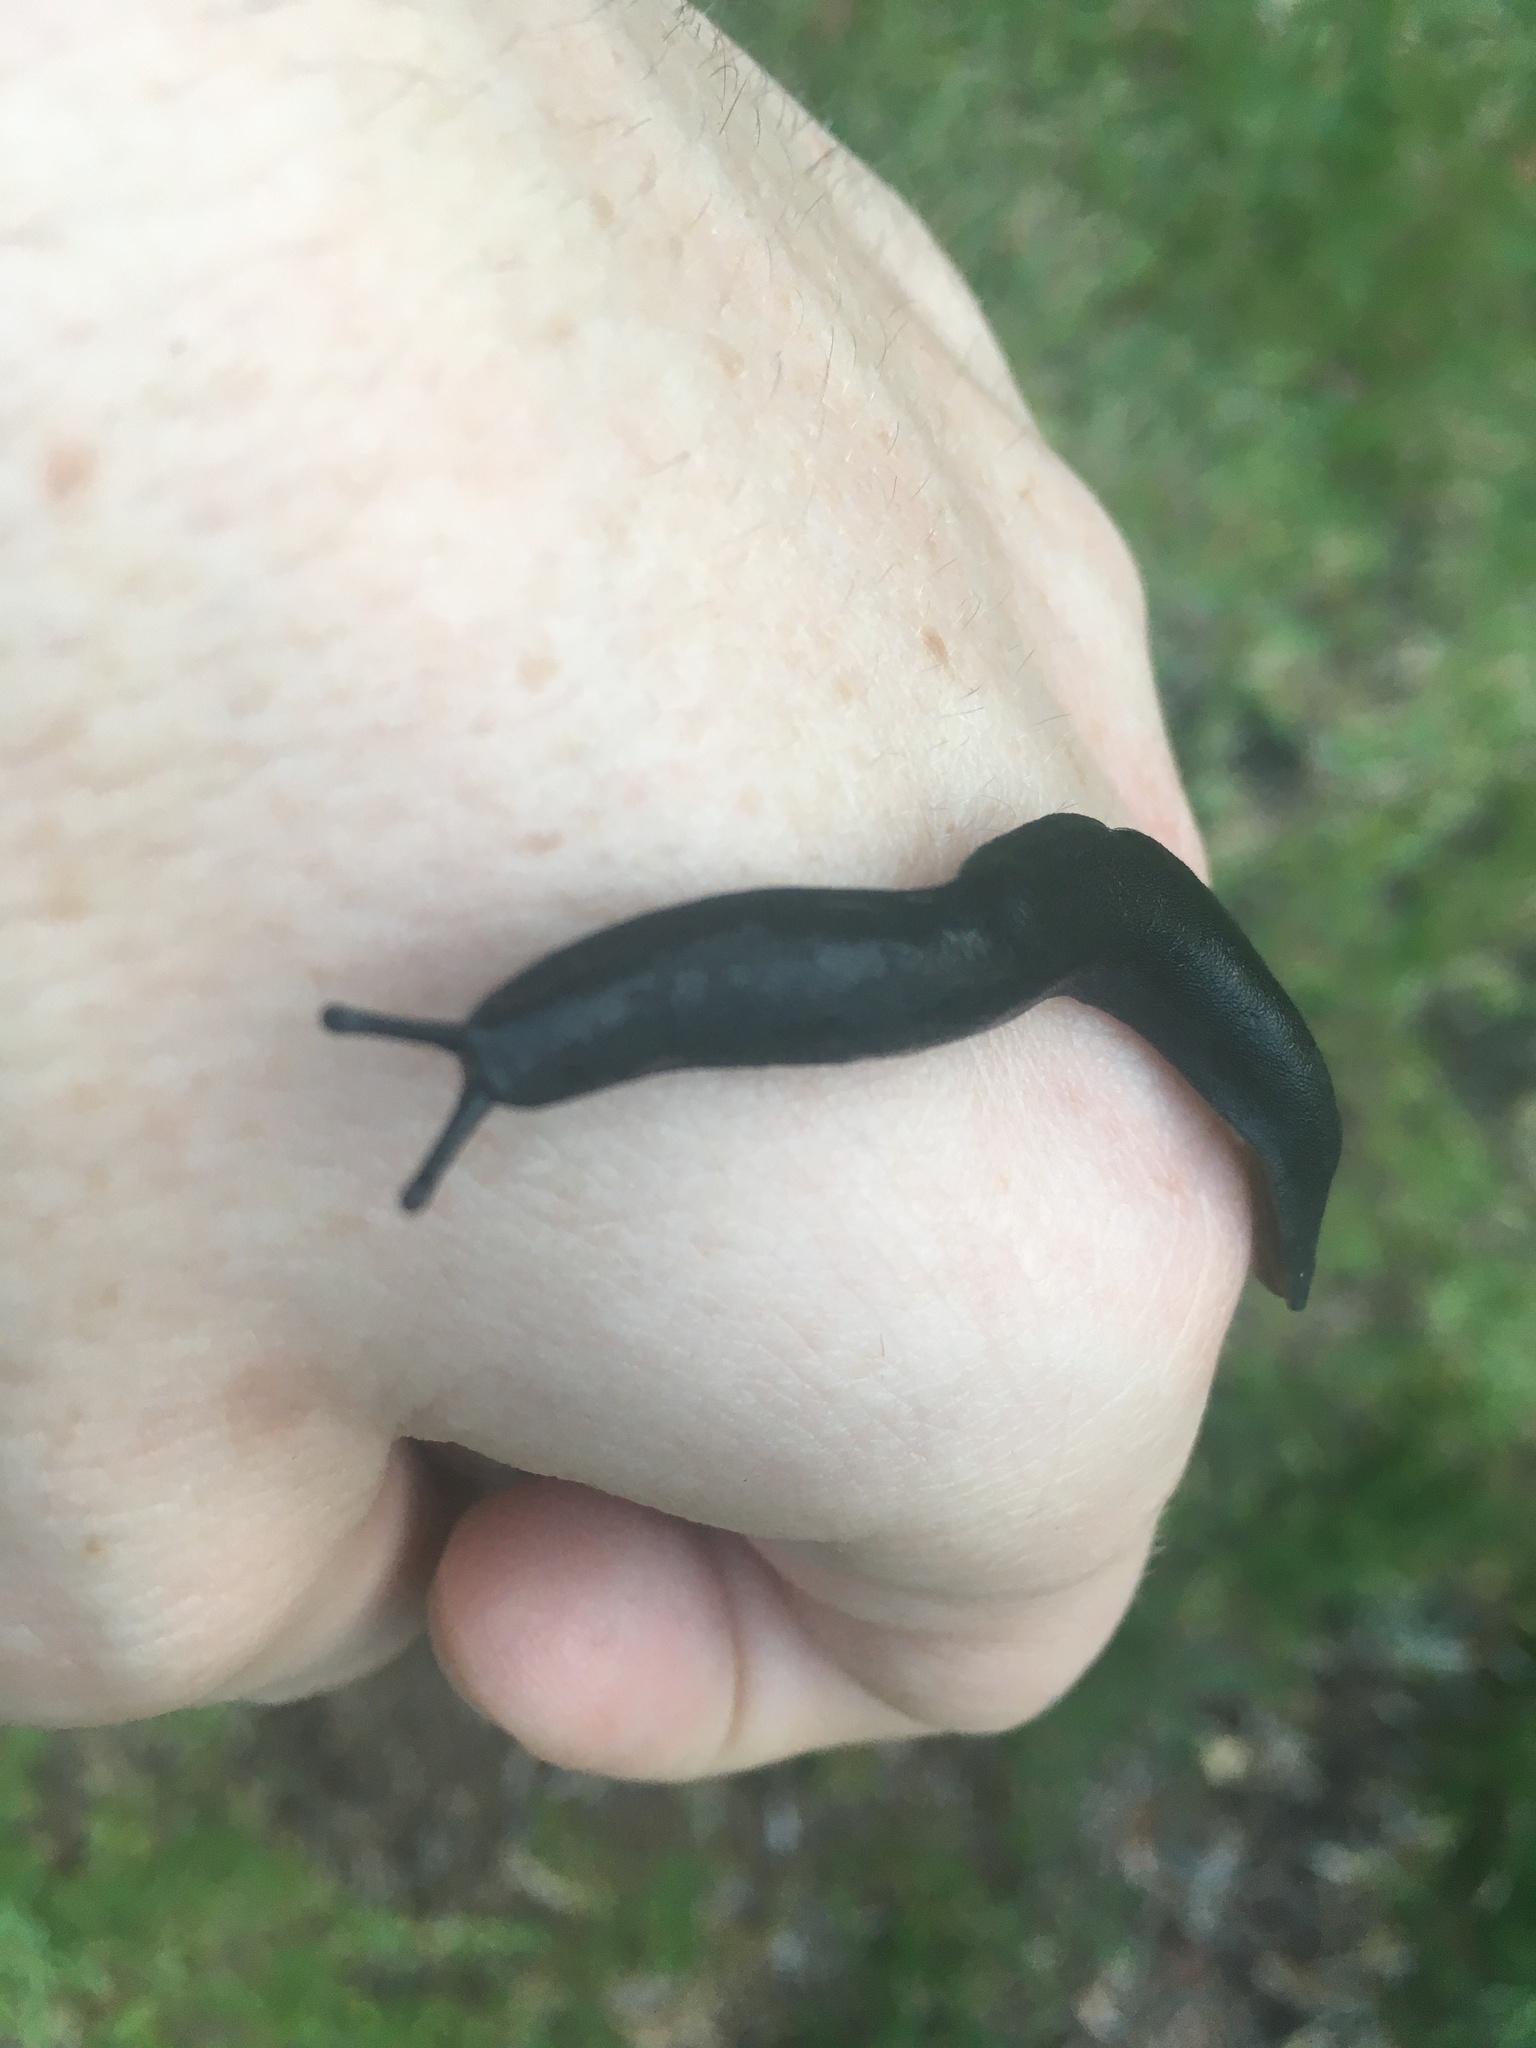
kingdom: Animalia
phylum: Mollusca
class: Gastropoda
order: Systellommatophora
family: Veronicellidae
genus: Belocaulus
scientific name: Belocaulus angustipes
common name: Black velvet leatherleaf slug
